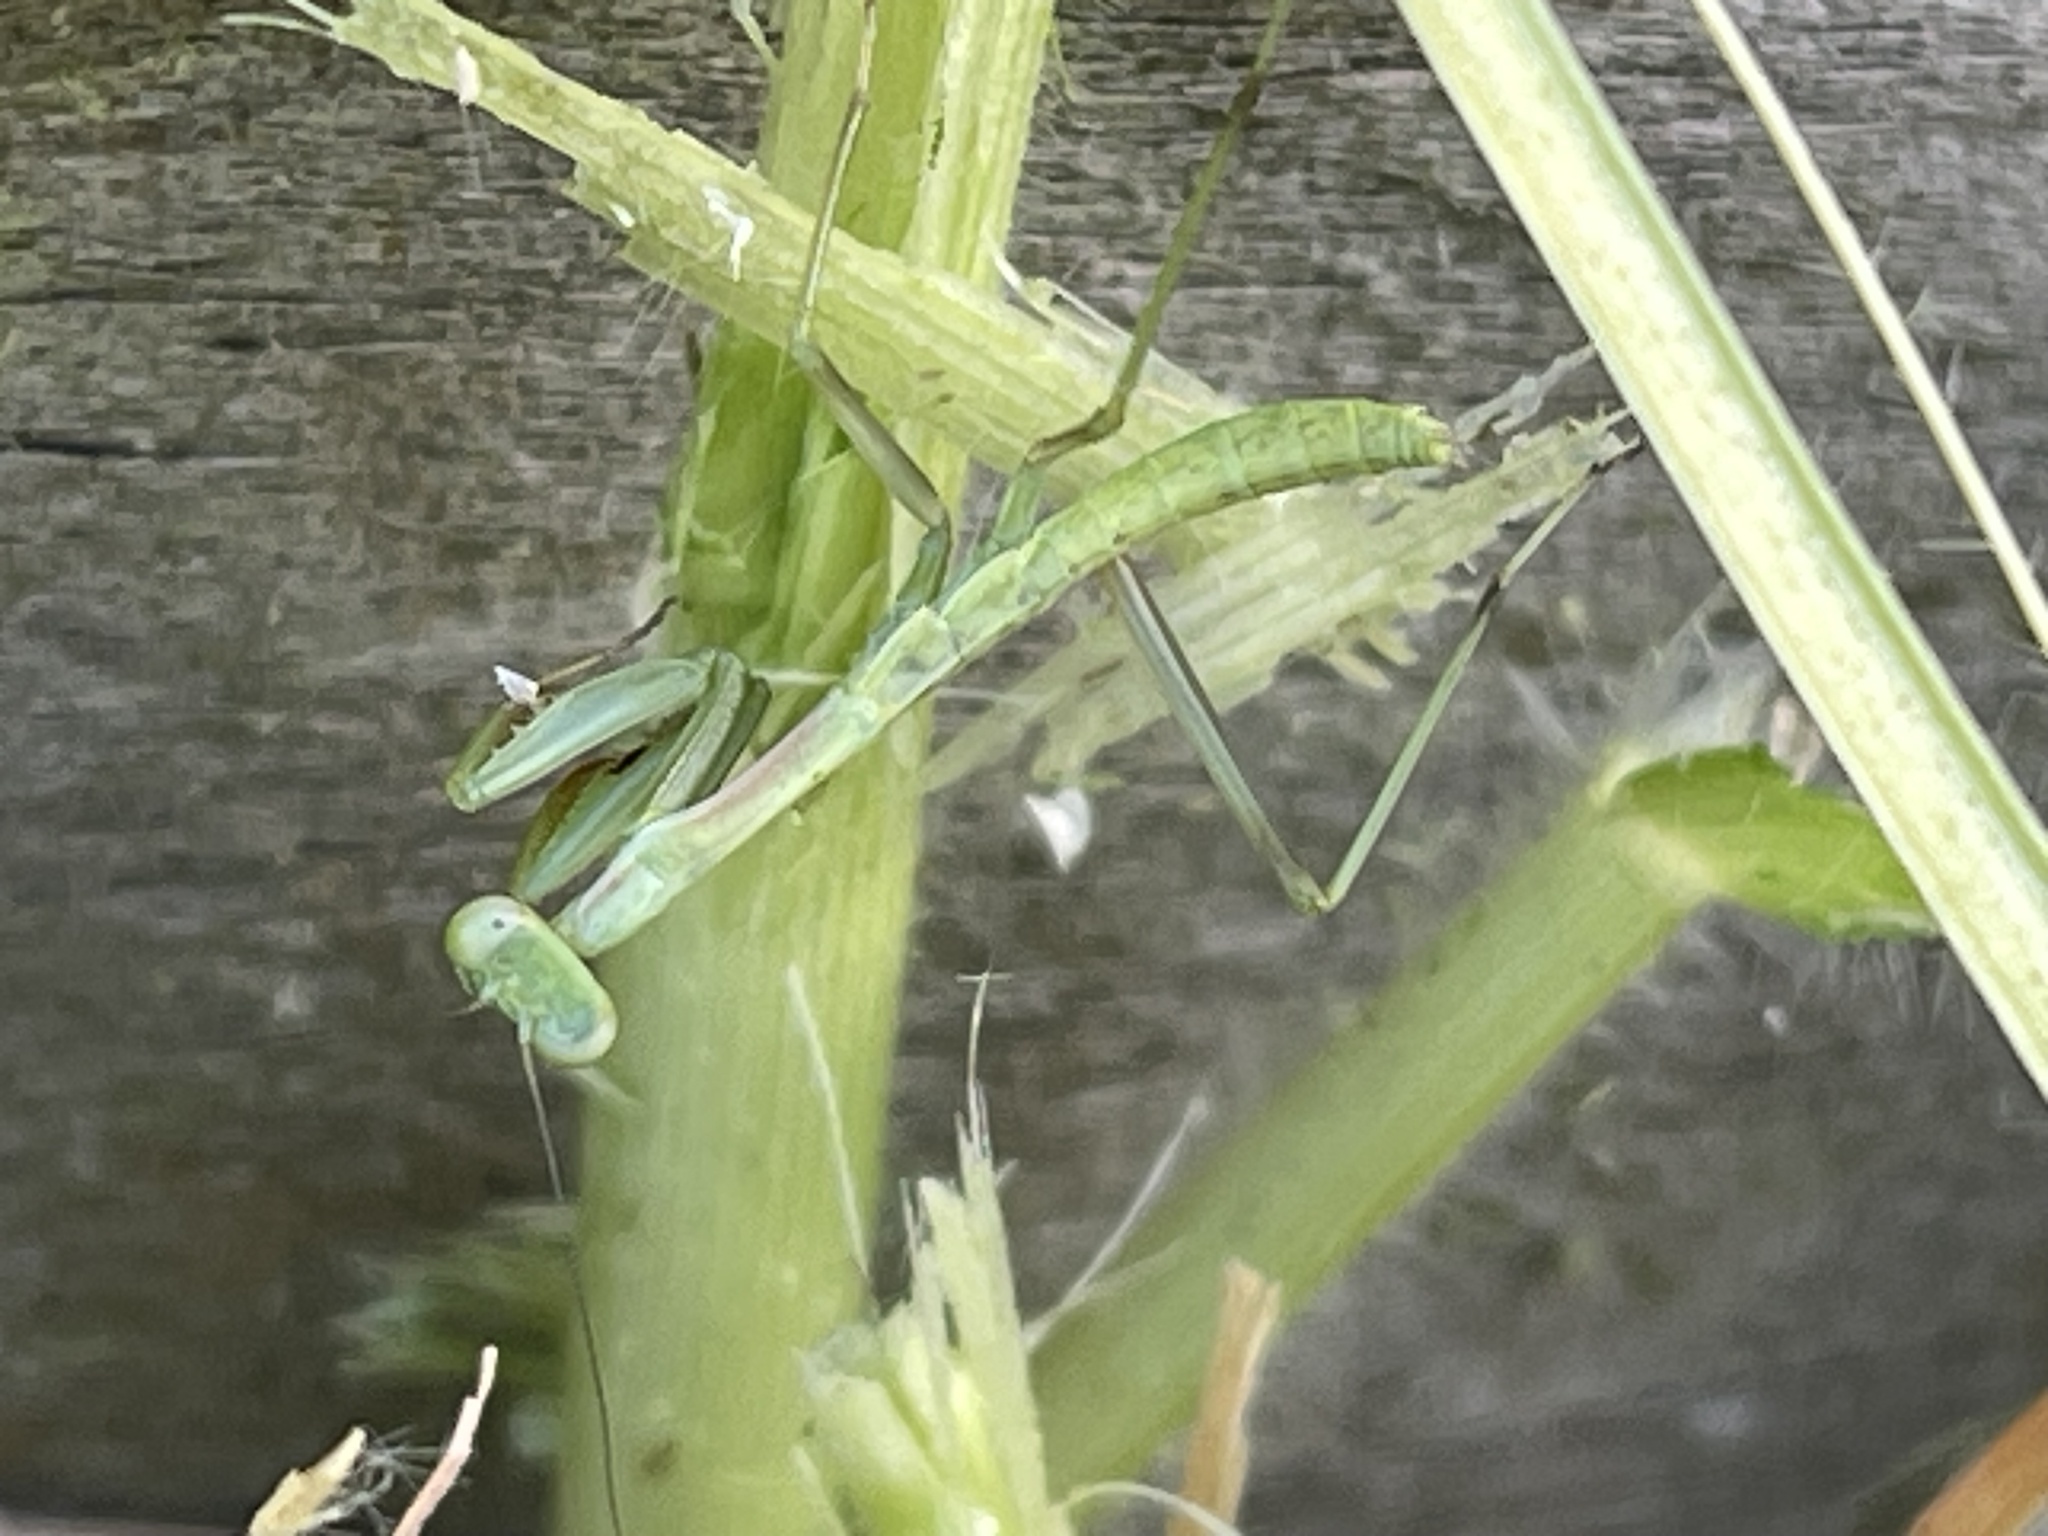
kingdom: Animalia
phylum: Arthropoda
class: Insecta
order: Mantodea
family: Mantidae
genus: Pseudomantis
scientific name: Pseudomantis albofimbriata
